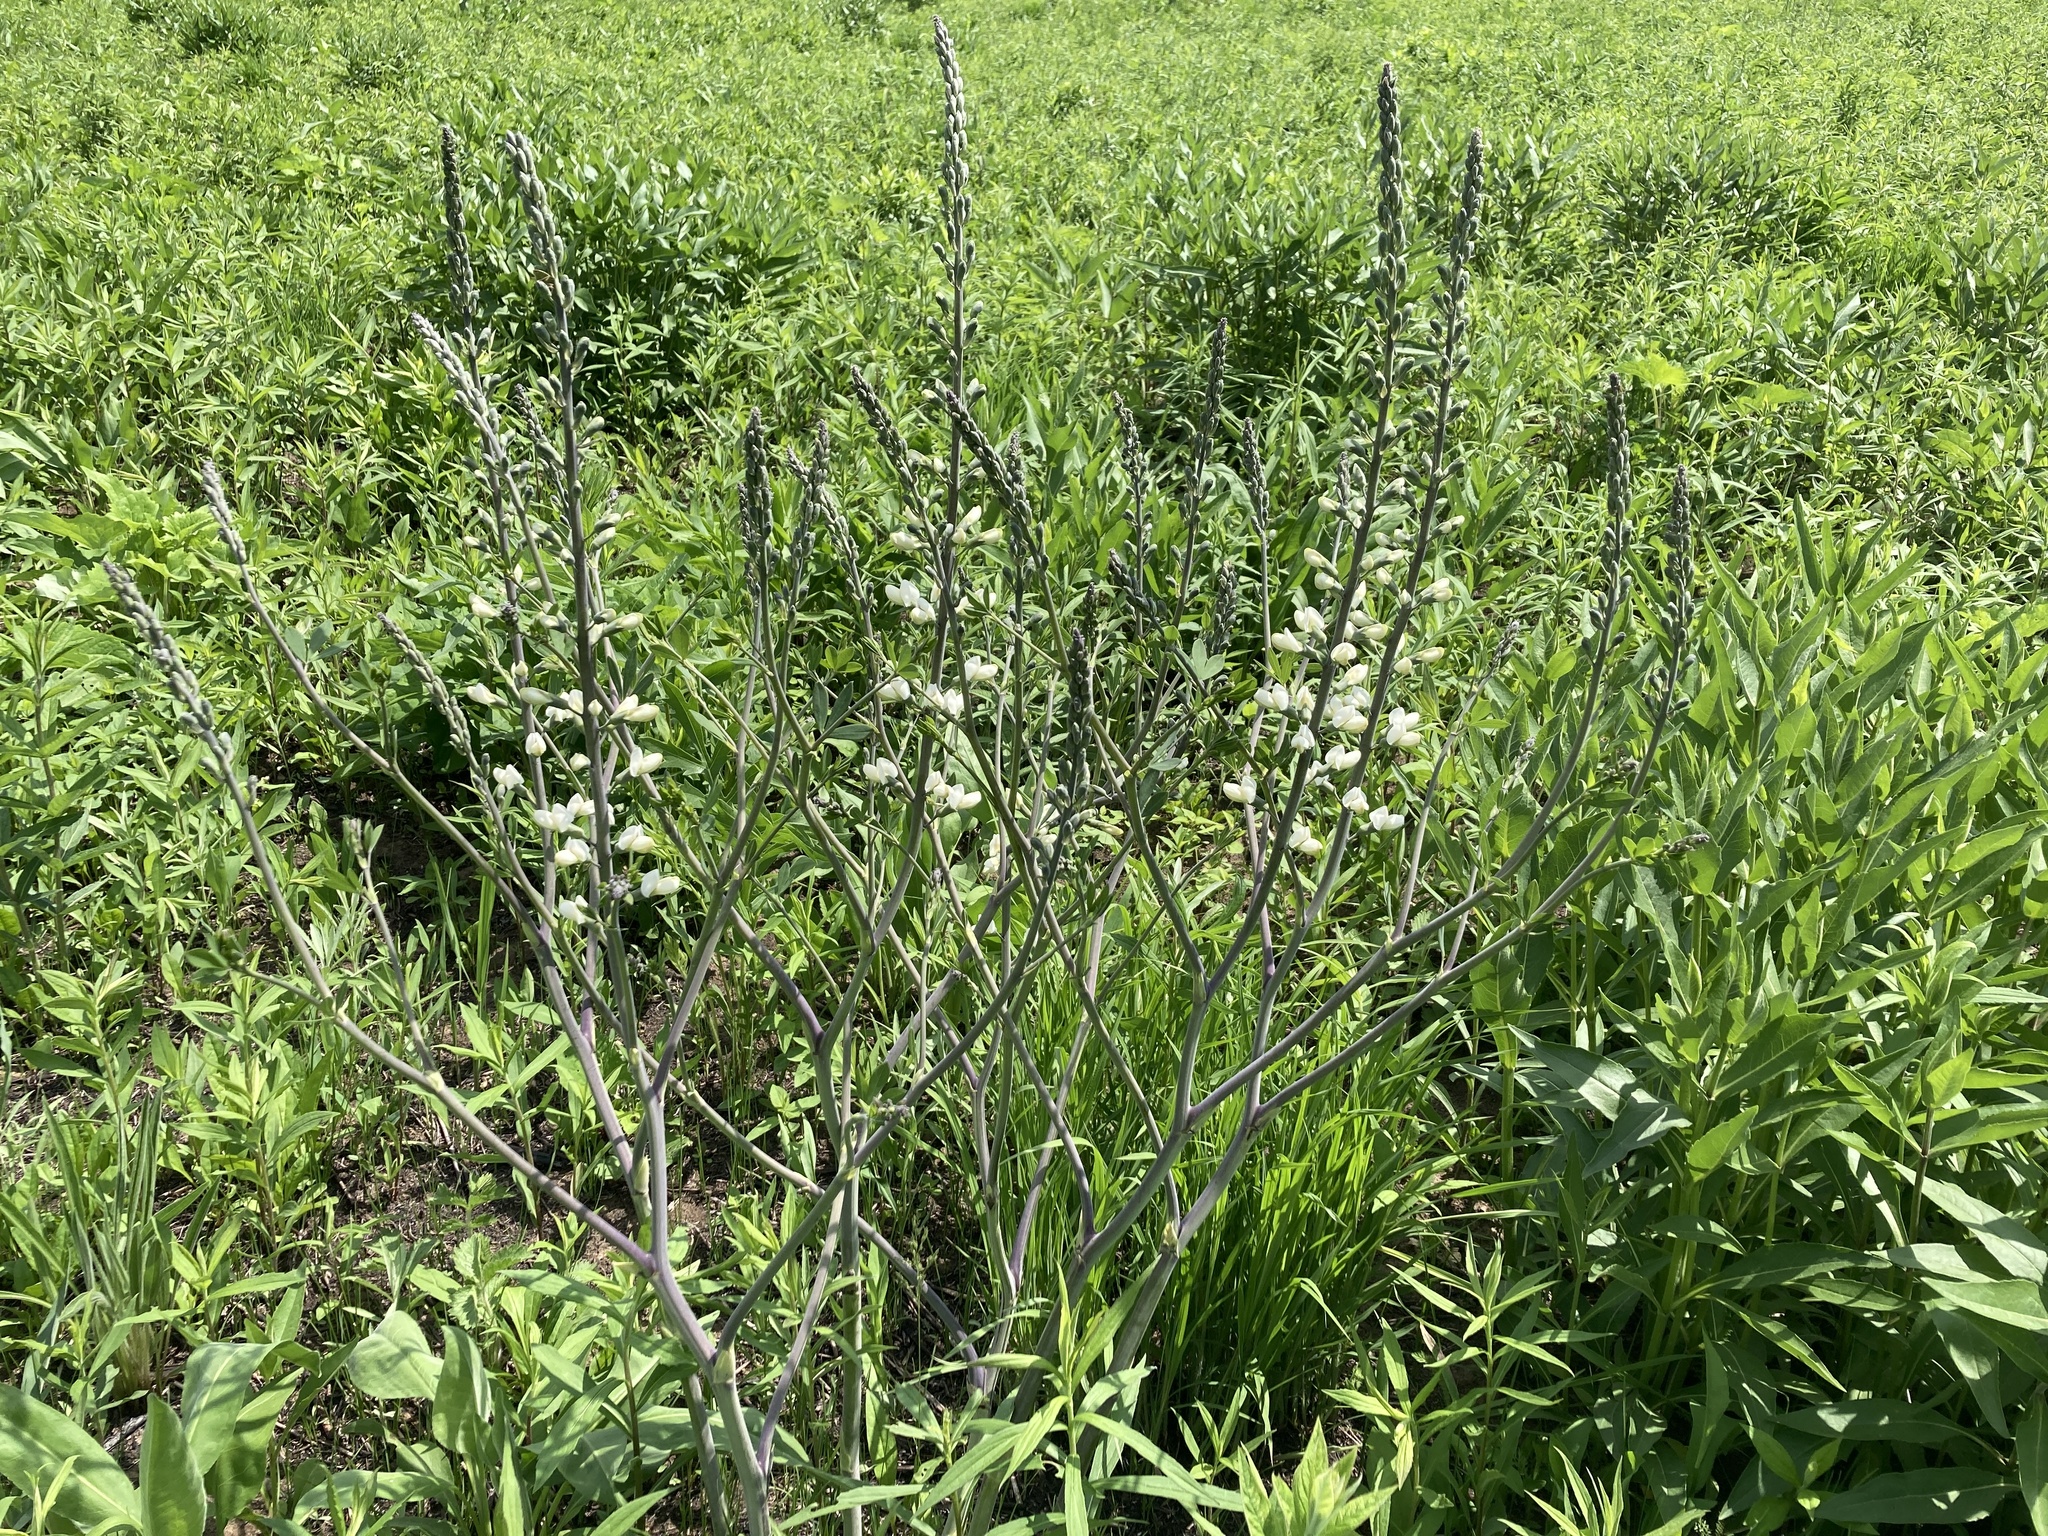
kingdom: Plantae
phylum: Tracheophyta
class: Magnoliopsida
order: Fabales
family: Fabaceae
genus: Baptisia
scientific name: Baptisia alba
